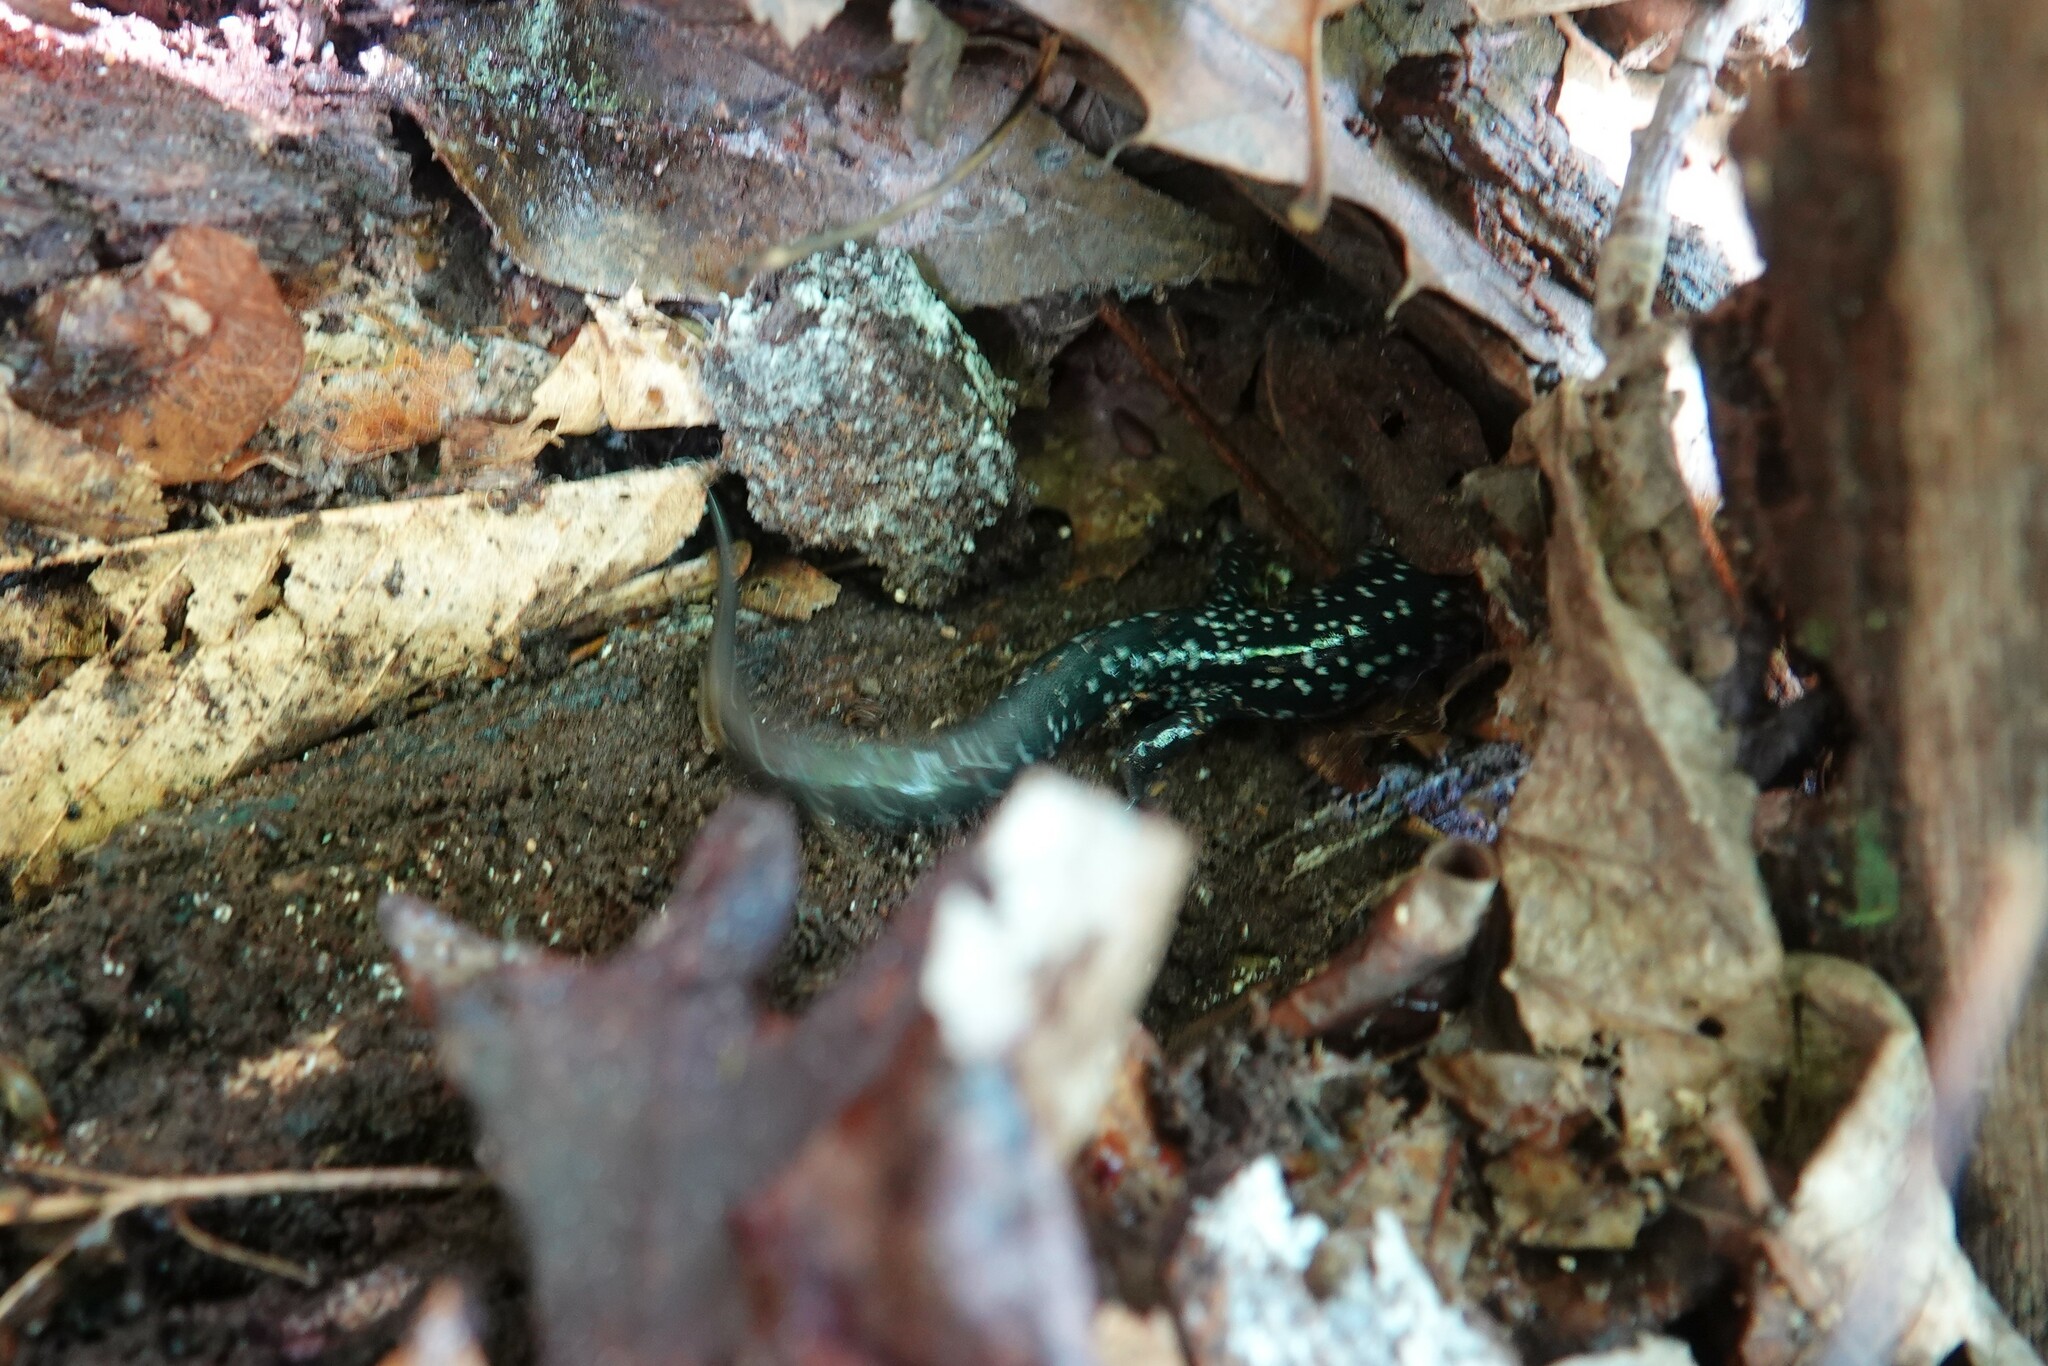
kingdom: Animalia
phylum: Chordata
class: Amphibia
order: Caudata
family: Plethodontidae
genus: Plethodon
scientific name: Plethodon cylindraceus
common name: White-spotted slimy salamander
